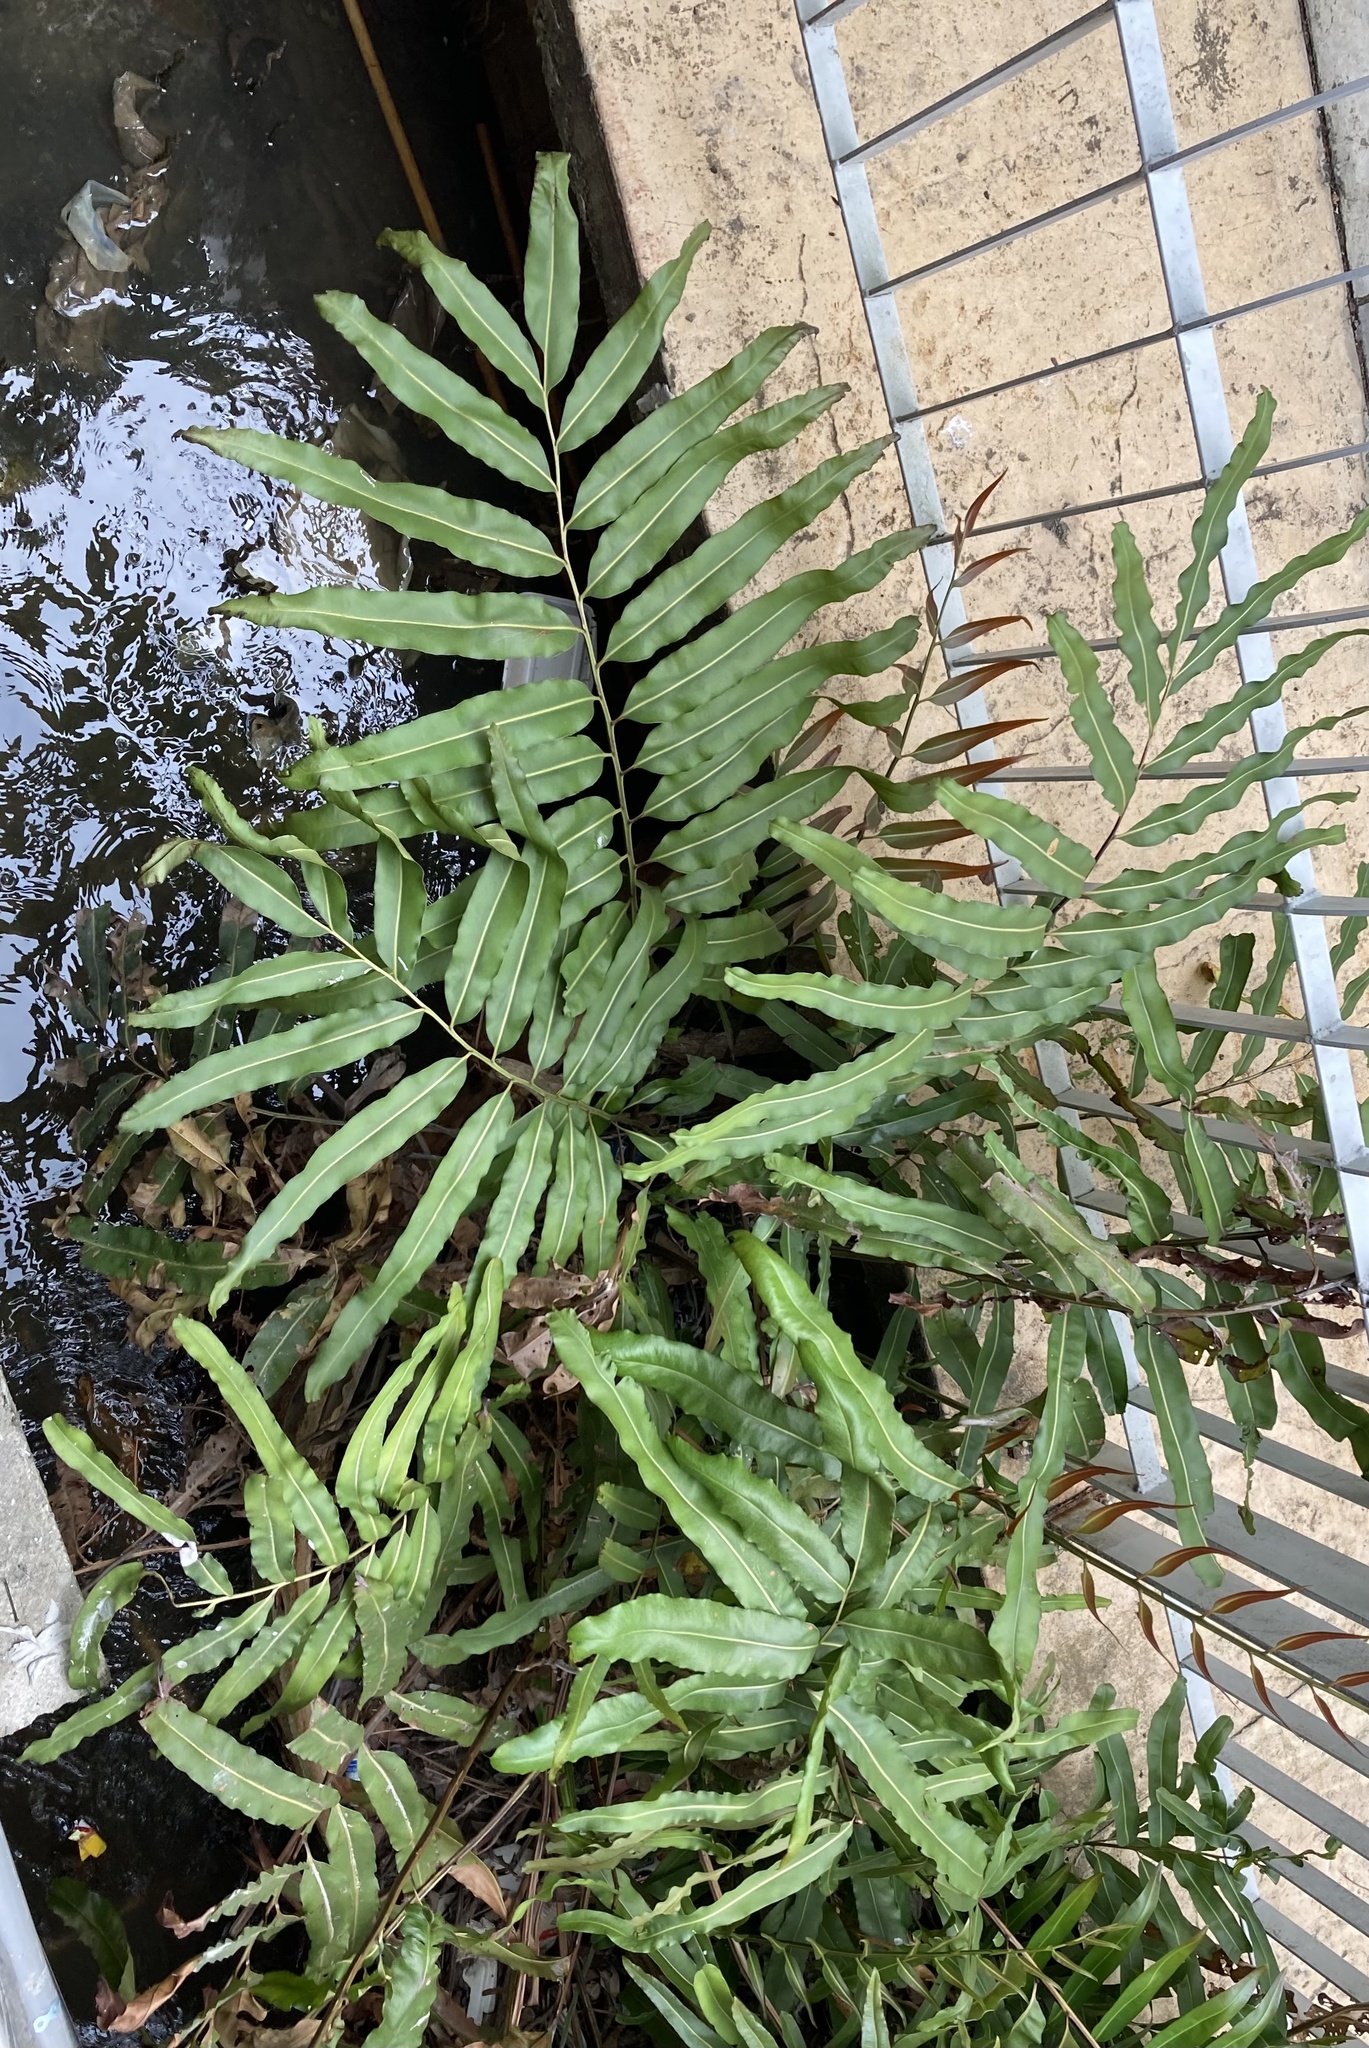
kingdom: Plantae
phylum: Tracheophyta
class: Polypodiopsida
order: Polypodiales
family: Pteridaceae
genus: Acrostichum
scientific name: Acrostichum aureum
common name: Leather fern
